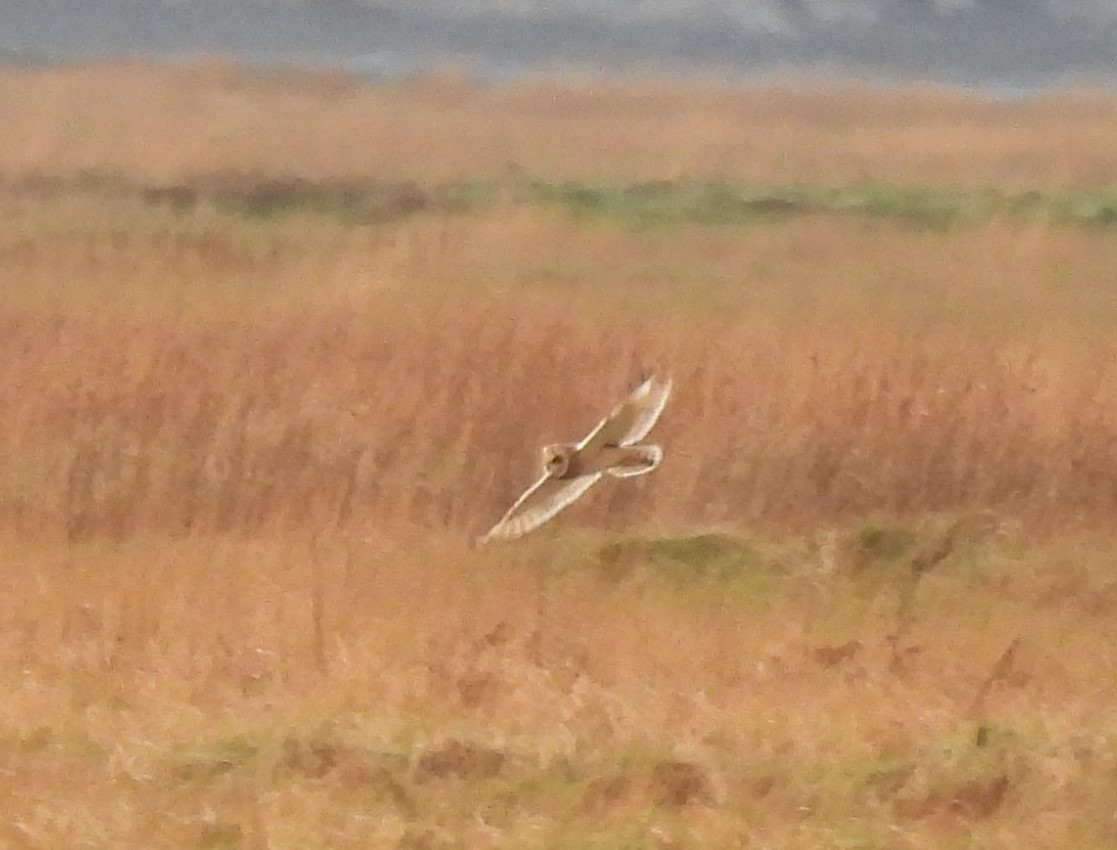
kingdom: Animalia
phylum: Chordata
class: Aves
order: Strigiformes
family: Strigidae
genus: Asio
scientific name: Asio flammeus
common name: Short-eared owl
